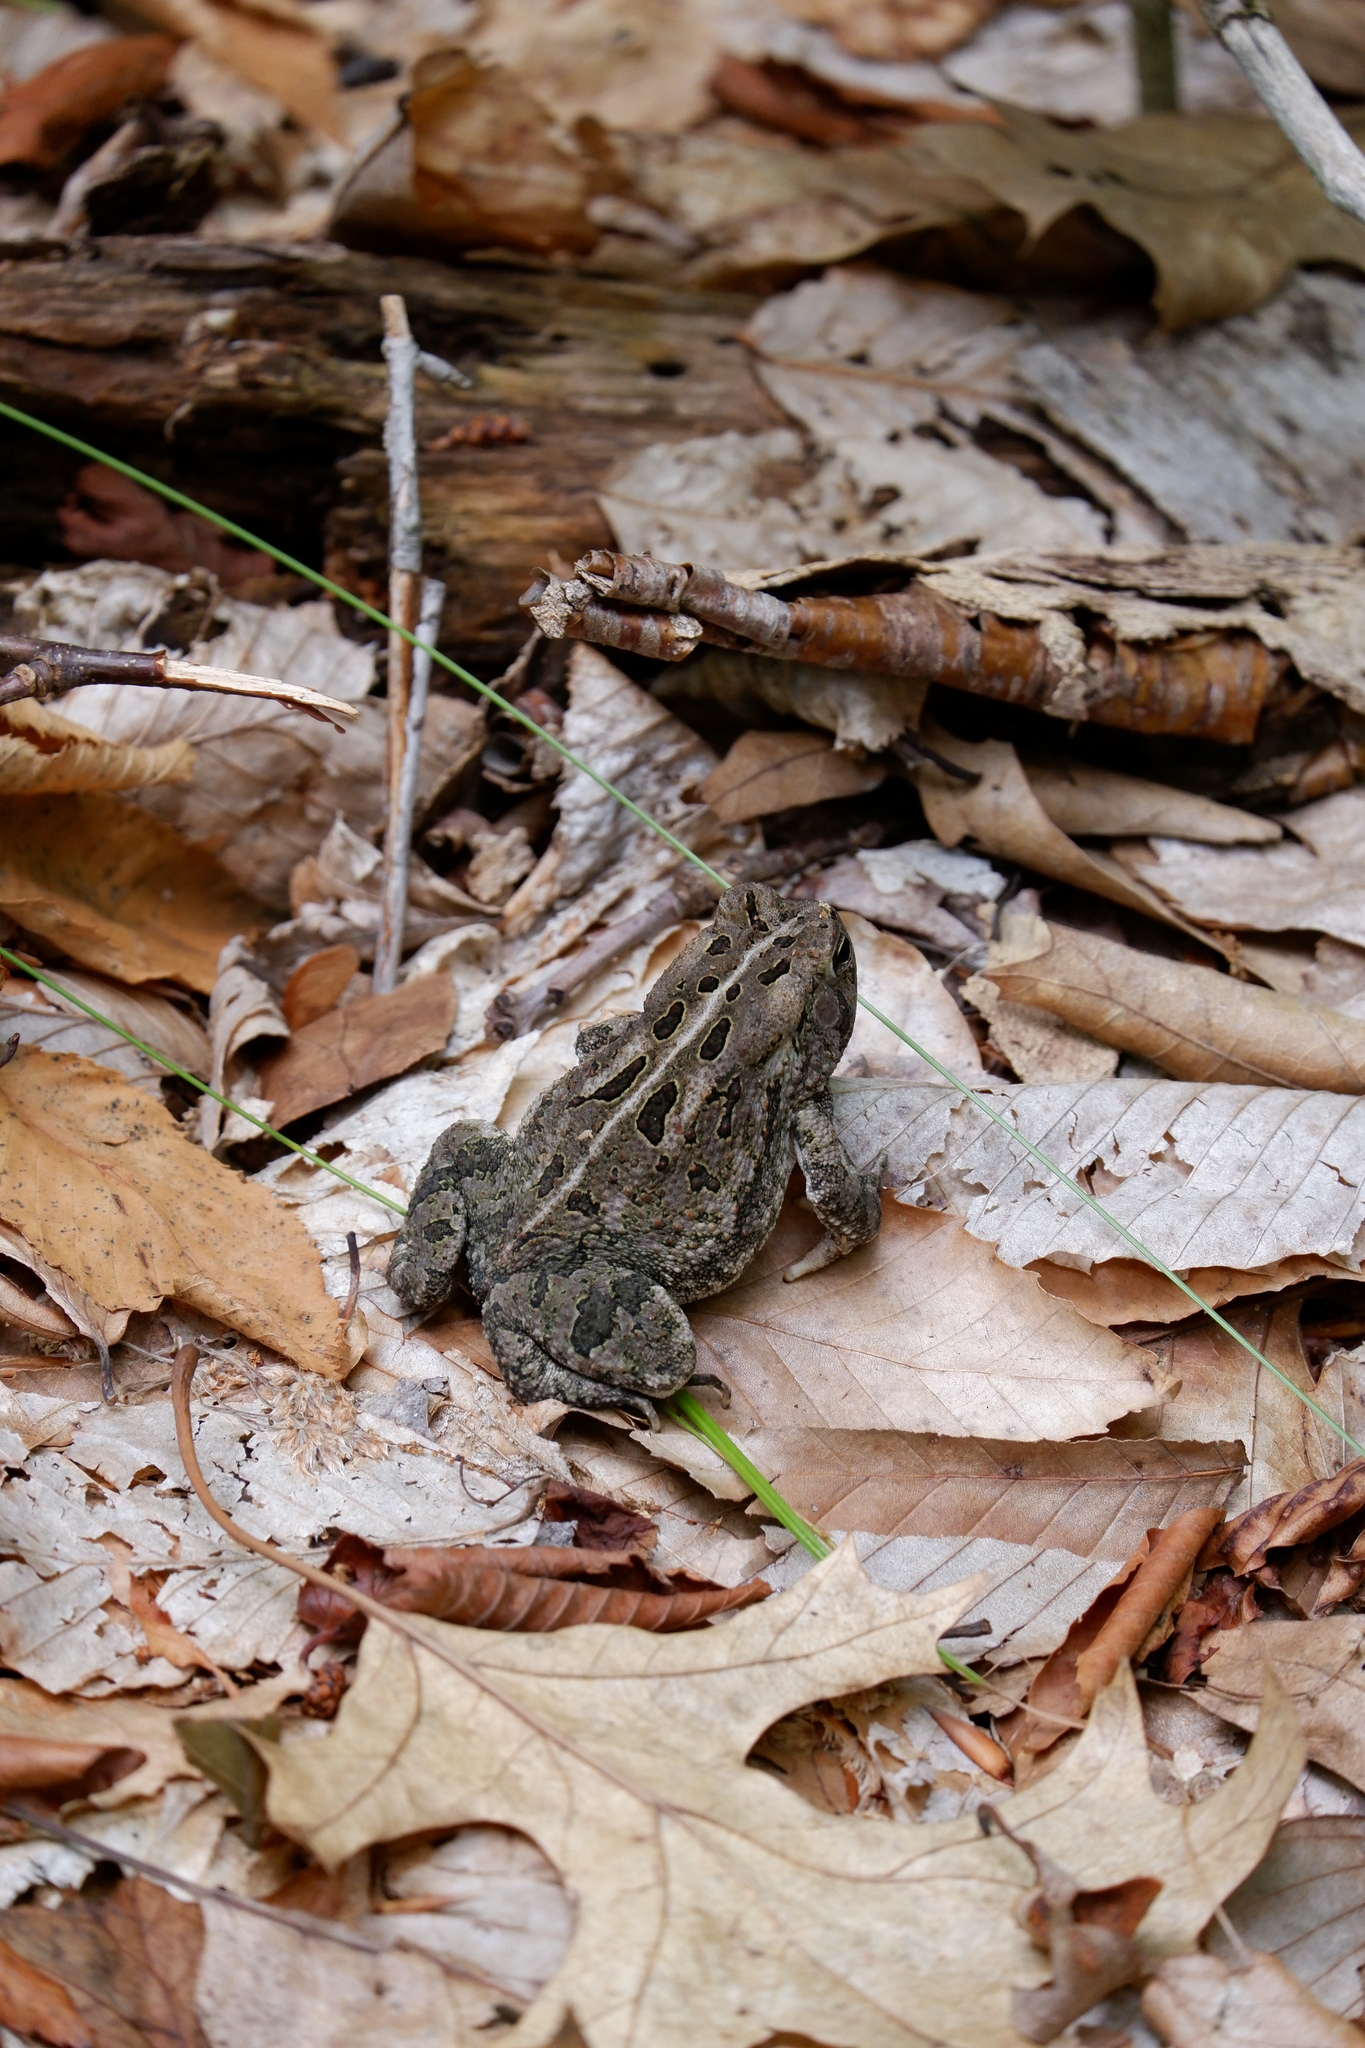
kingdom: Animalia
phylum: Chordata
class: Amphibia
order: Anura
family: Bufonidae
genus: Anaxyrus
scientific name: Anaxyrus fowleri
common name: Fowler's toad
